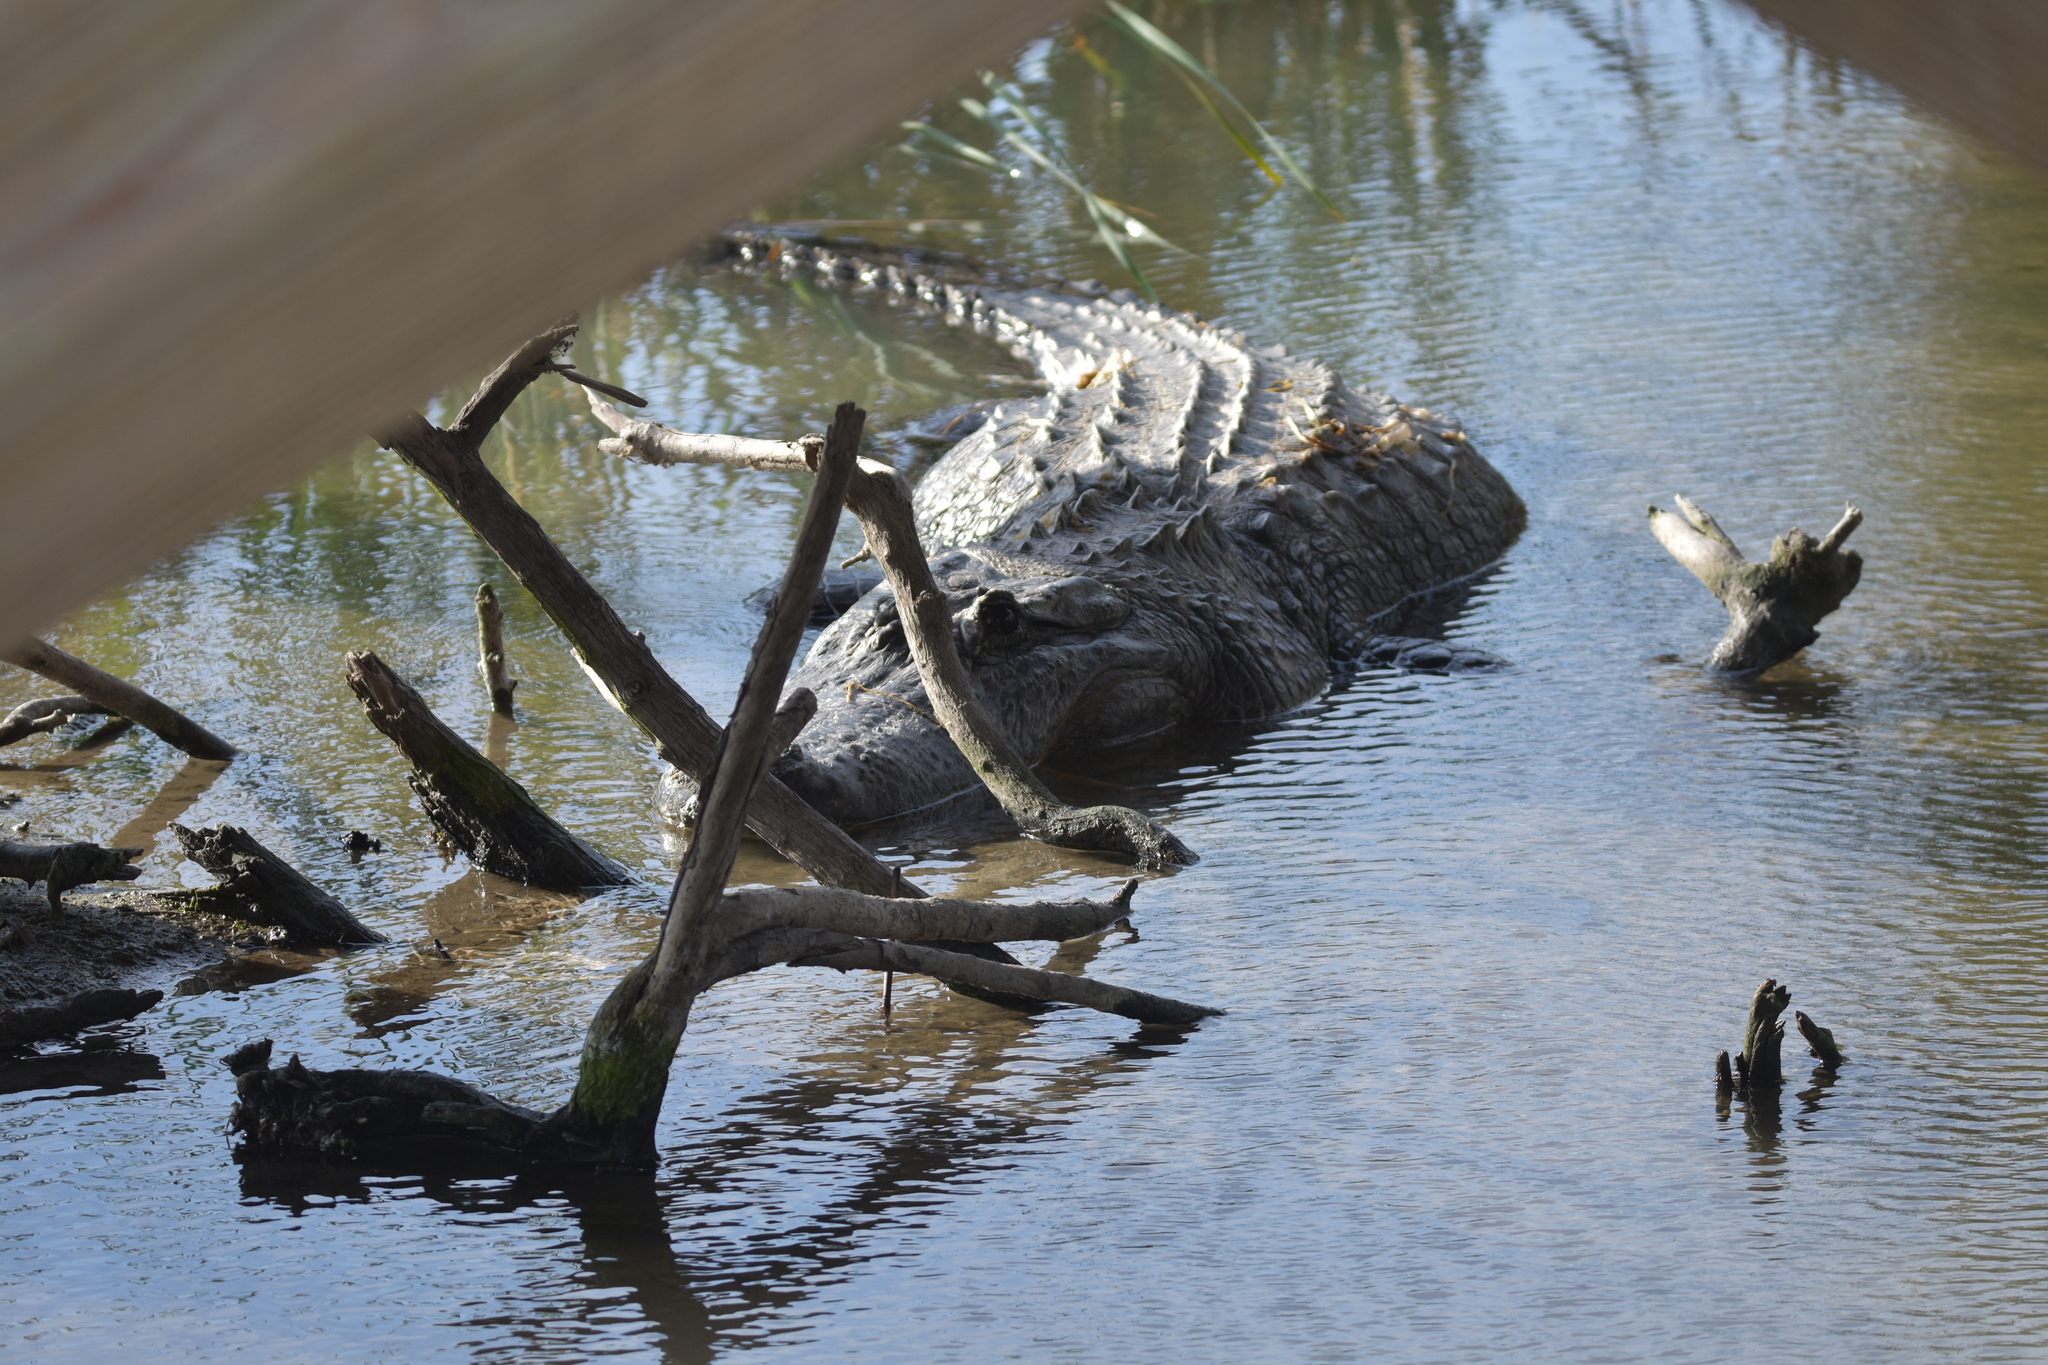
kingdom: Animalia
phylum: Chordata
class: Crocodylia
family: Alligatoridae
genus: Alligator
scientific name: Alligator mississippiensis
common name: American alligator
